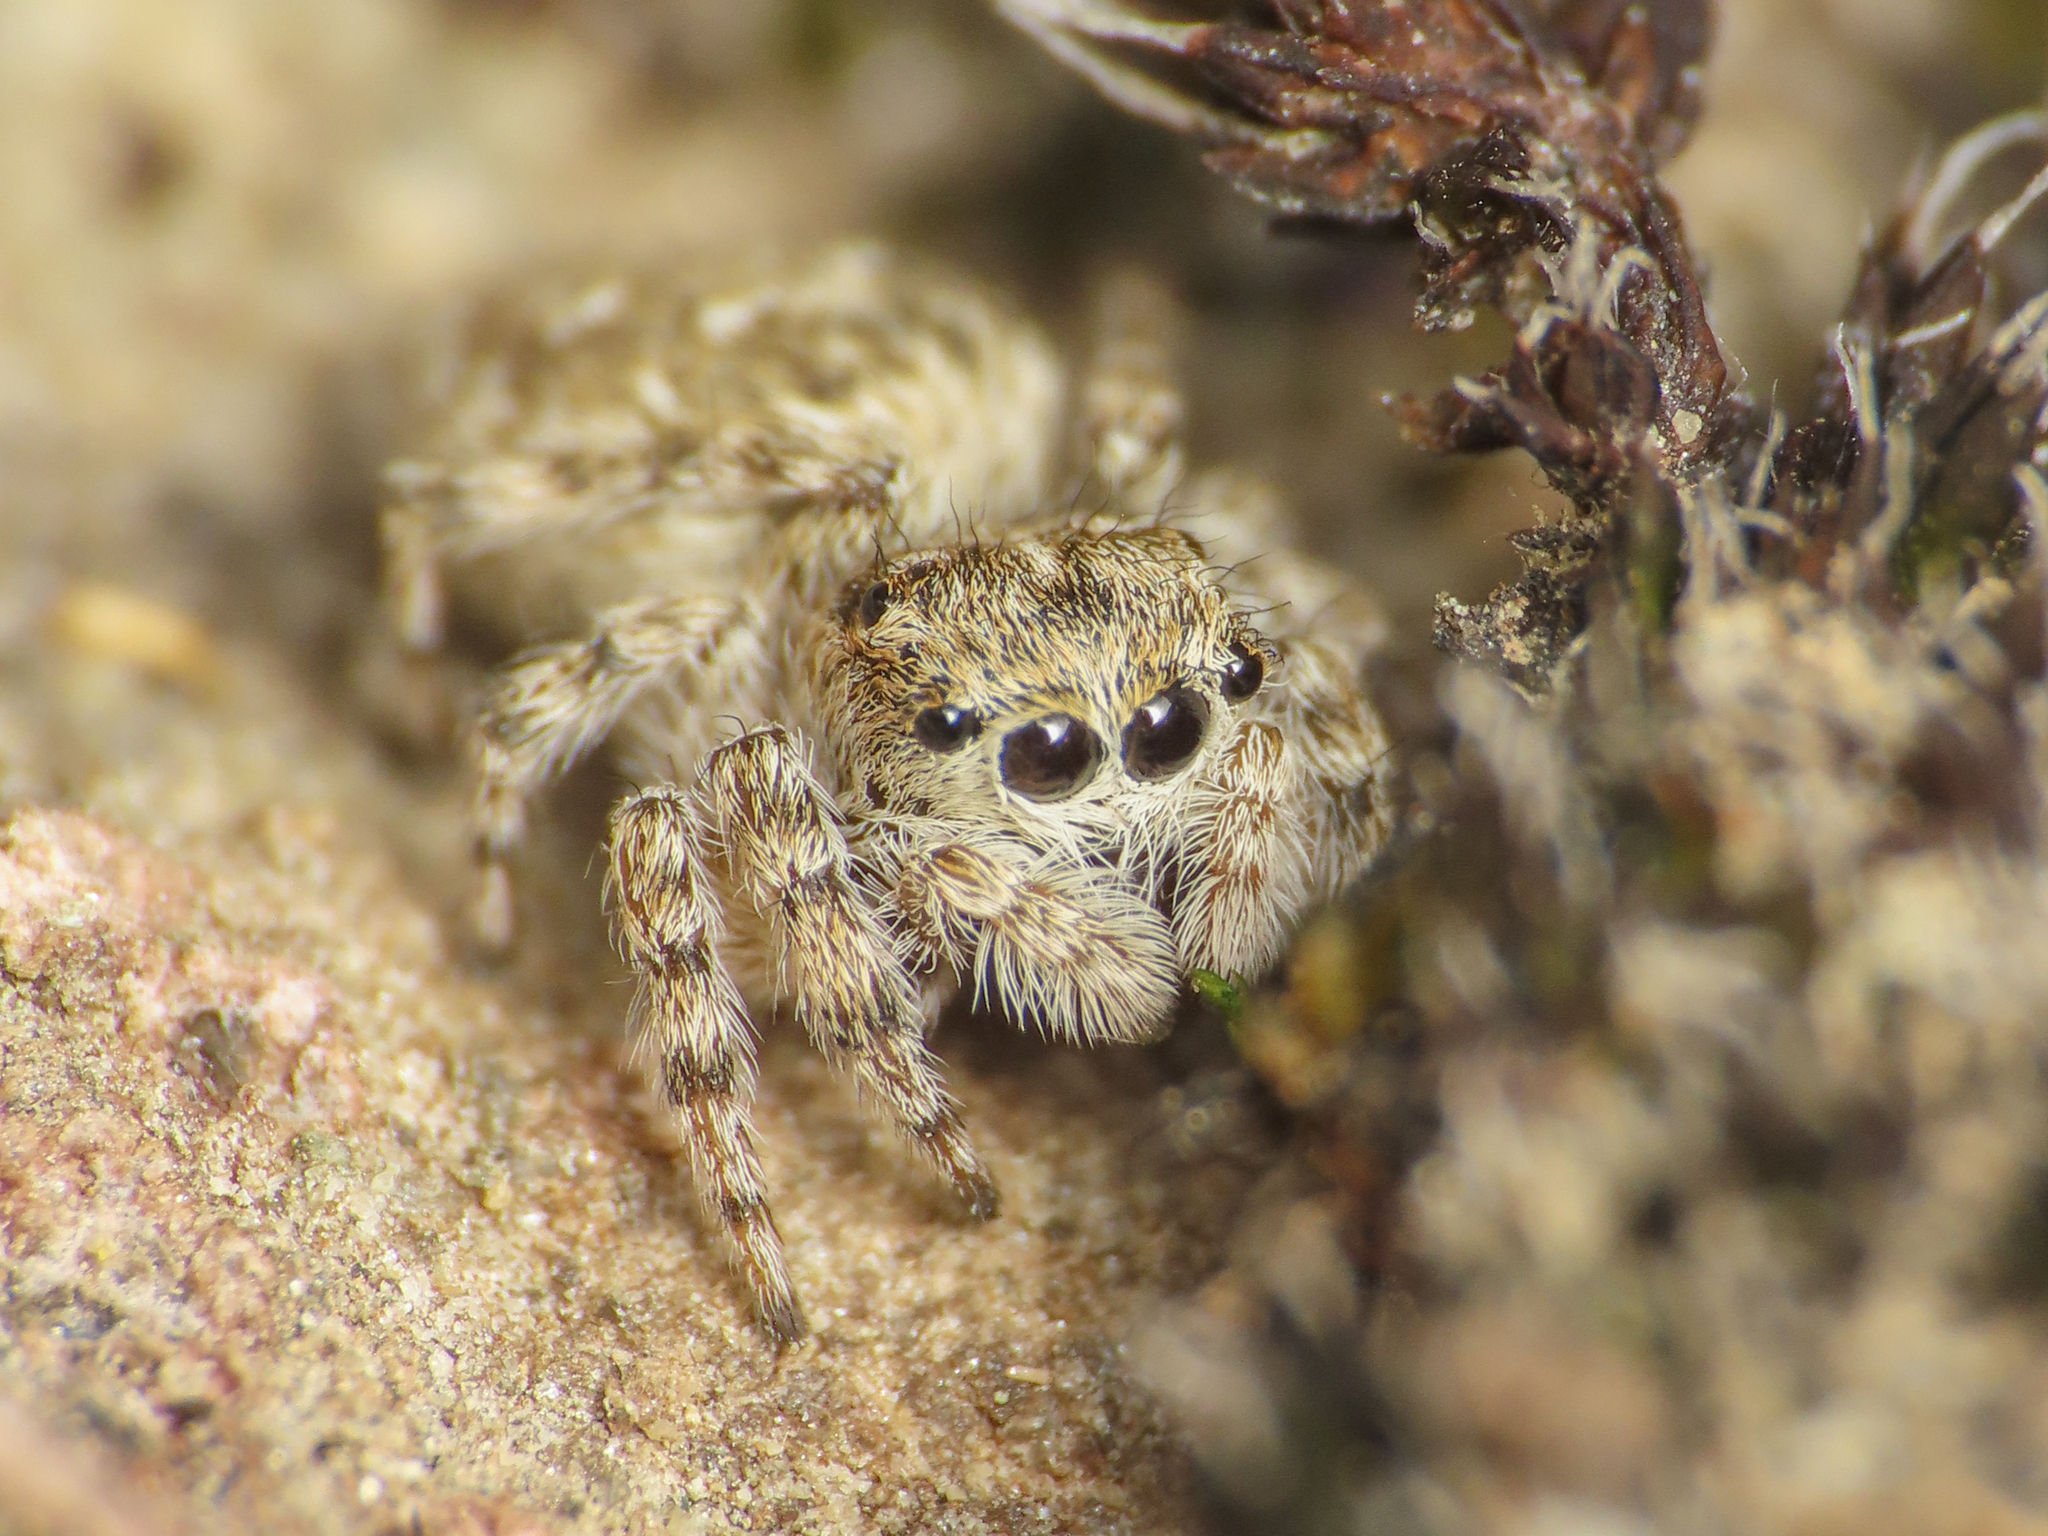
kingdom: Animalia
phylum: Arthropoda
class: Arachnida
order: Araneae
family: Salticidae
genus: Attulus
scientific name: Attulus distinguendus
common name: Distinguished jumper
